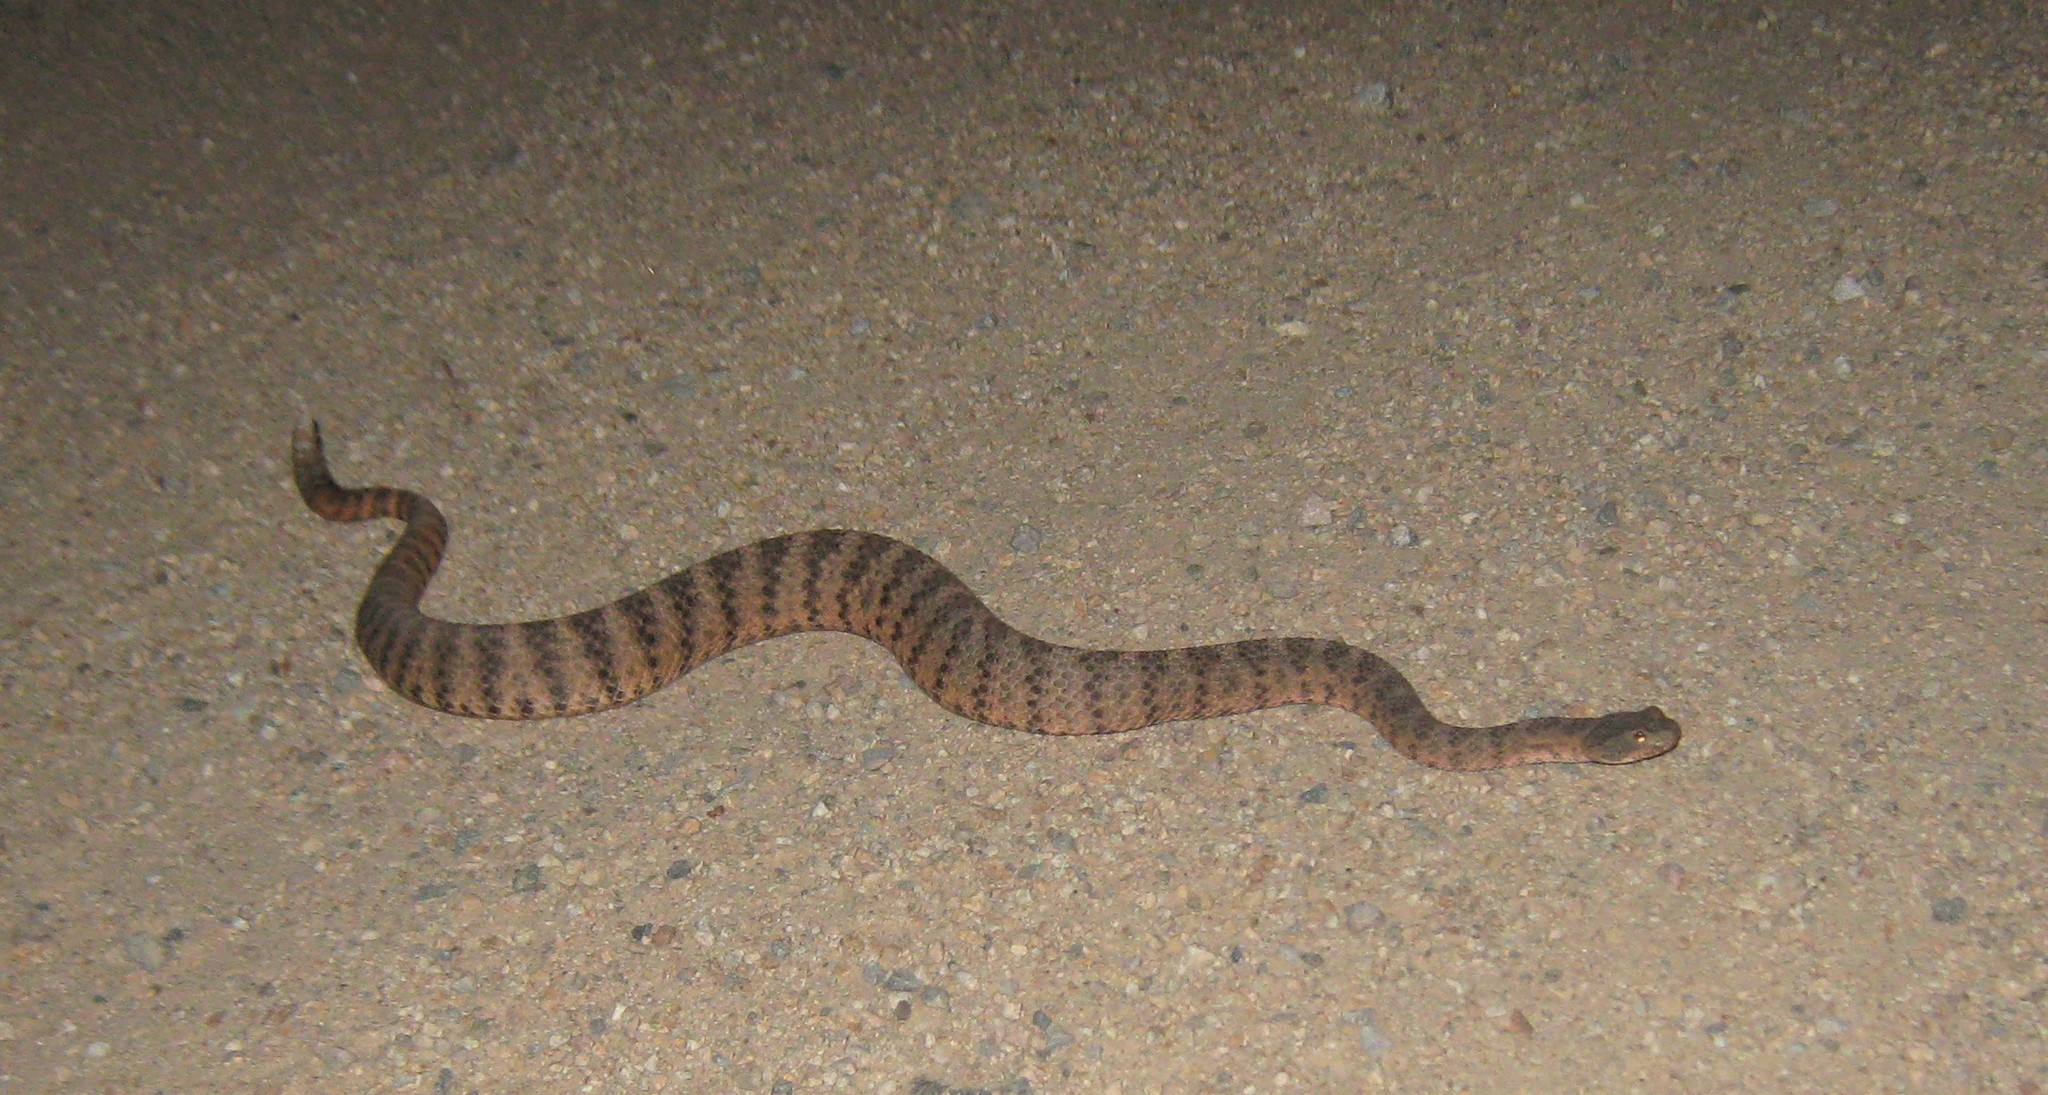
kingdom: Animalia
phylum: Chordata
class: Squamata
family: Viperidae
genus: Crotalus
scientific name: Crotalus tigris
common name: Tiger rattlesnake
